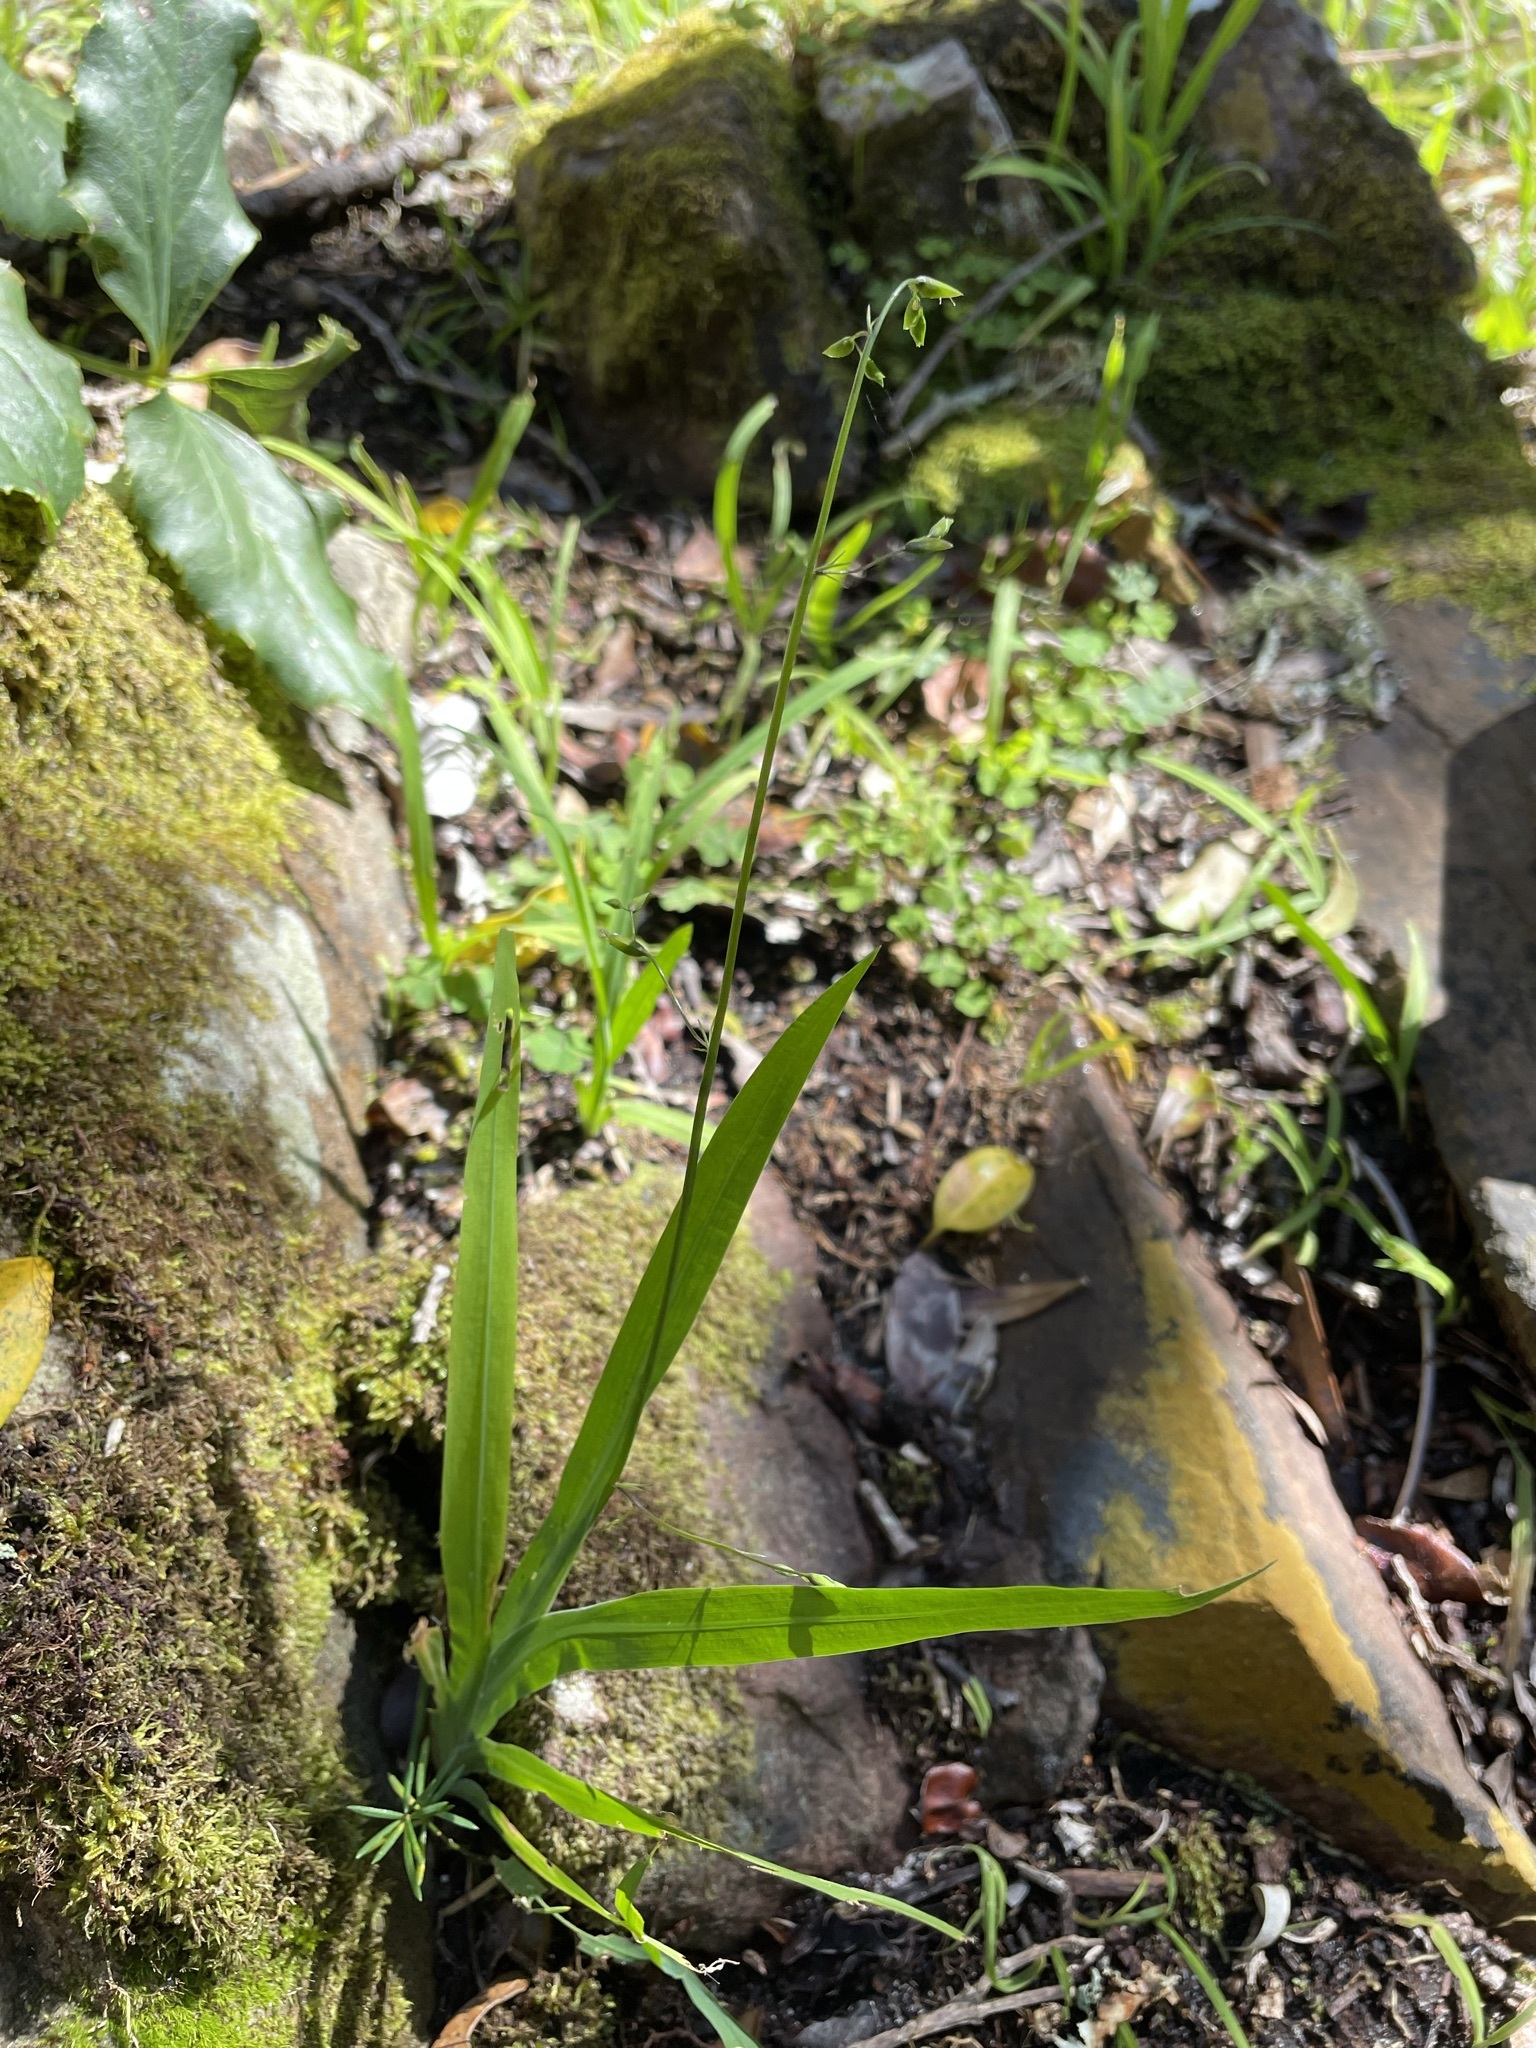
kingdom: Plantae
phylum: Tracheophyta
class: Liliopsida
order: Asparagales
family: Iridaceae
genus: Melasphaerula
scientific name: Melasphaerula graminea
